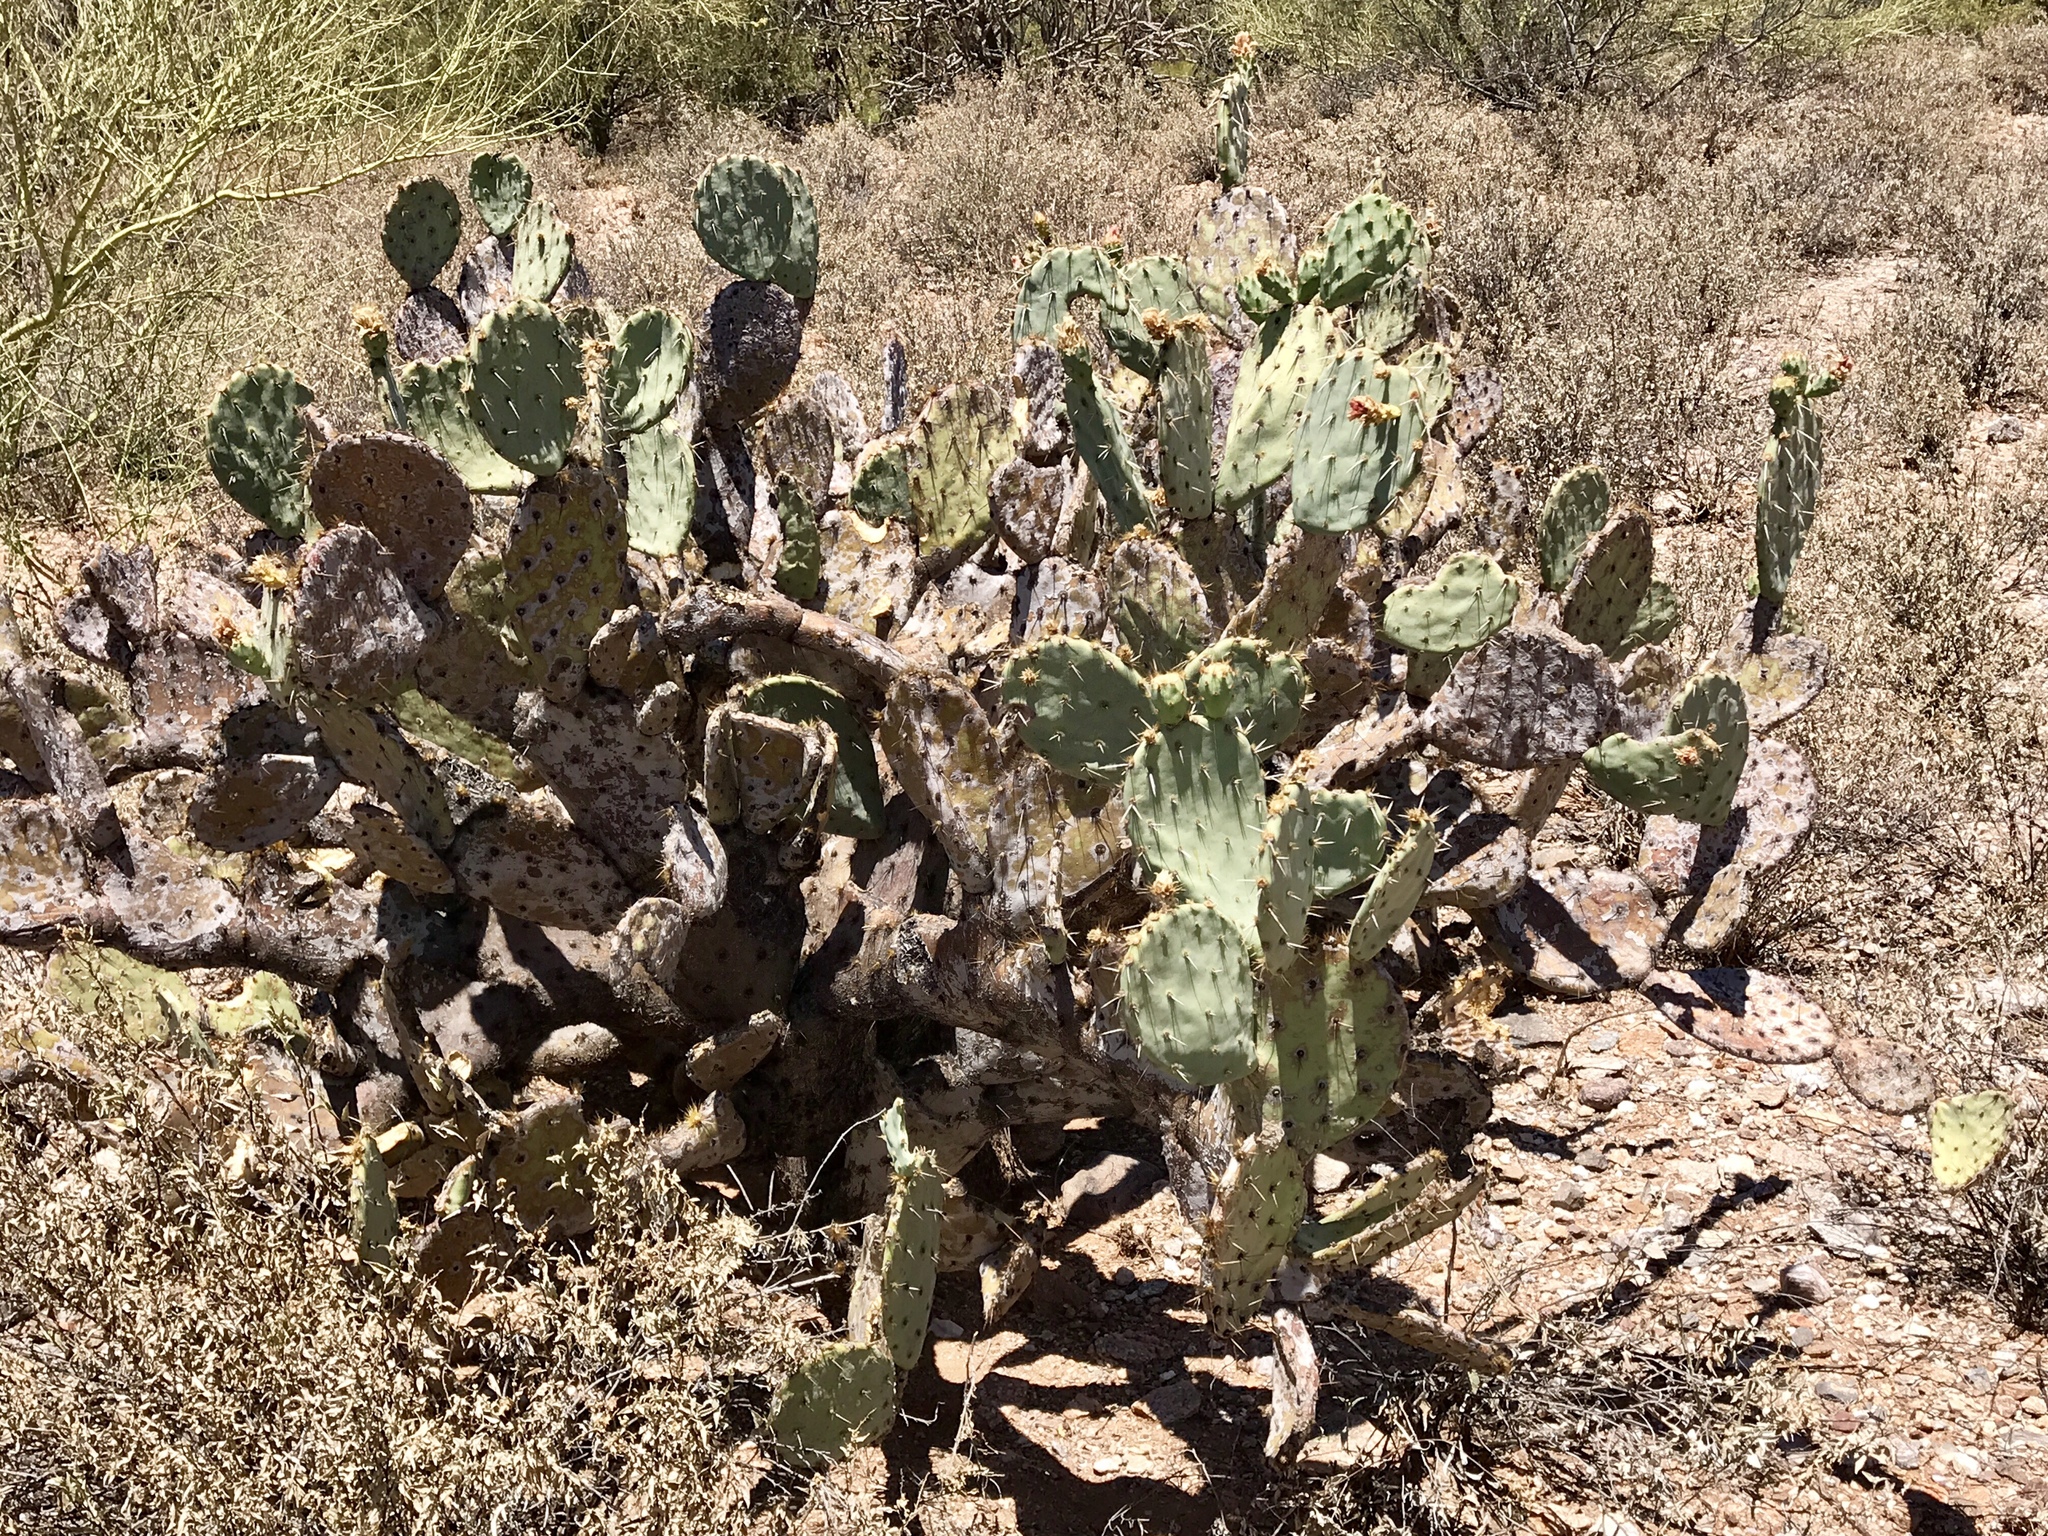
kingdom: Plantae
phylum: Tracheophyta
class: Magnoliopsida
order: Caryophyllales
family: Cactaceae
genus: Opuntia
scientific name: Opuntia engelmannii
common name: Cactus-apple
